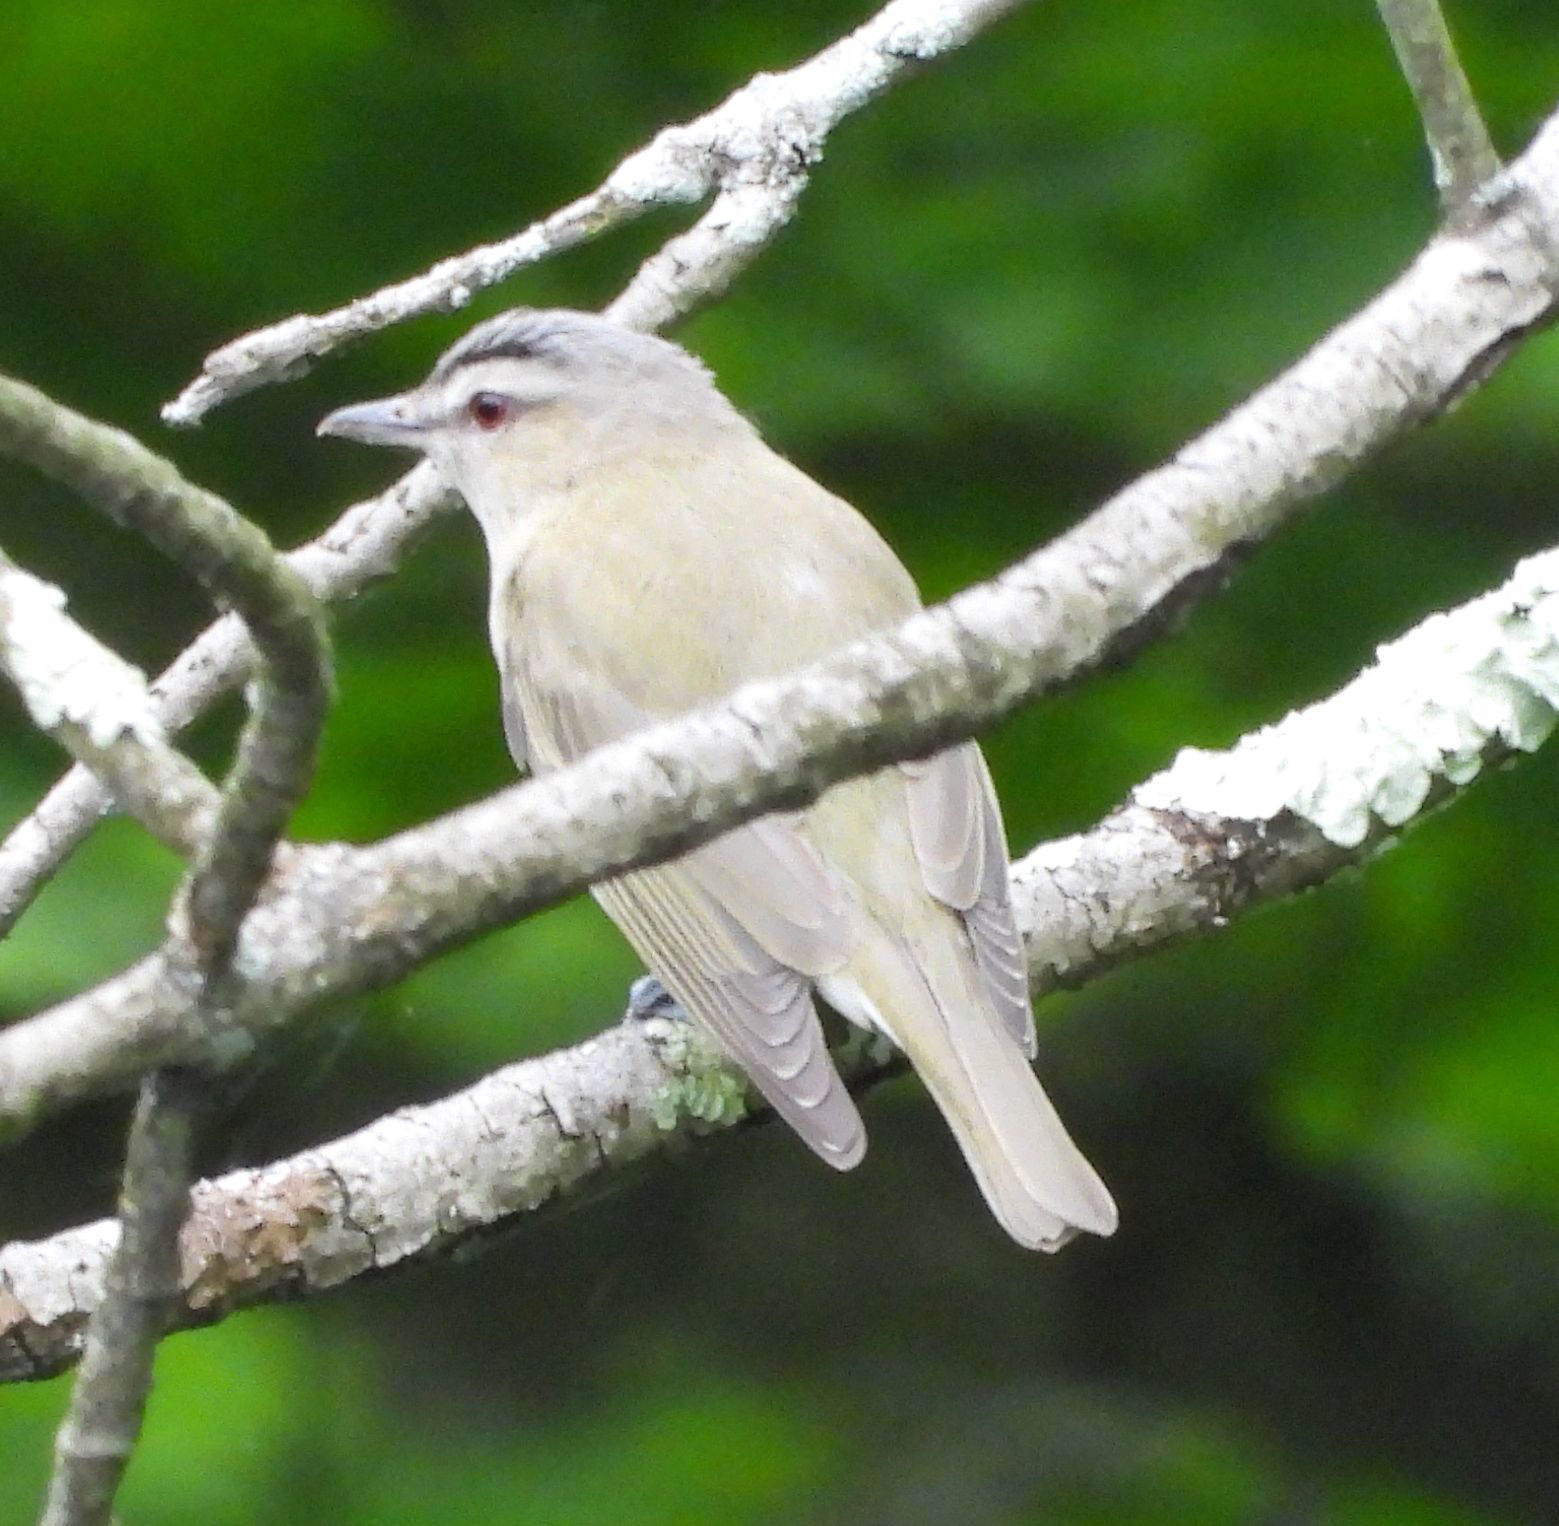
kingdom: Animalia
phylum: Chordata
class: Aves
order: Passeriformes
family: Vireonidae
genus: Vireo
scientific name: Vireo olivaceus
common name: Red-eyed vireo
